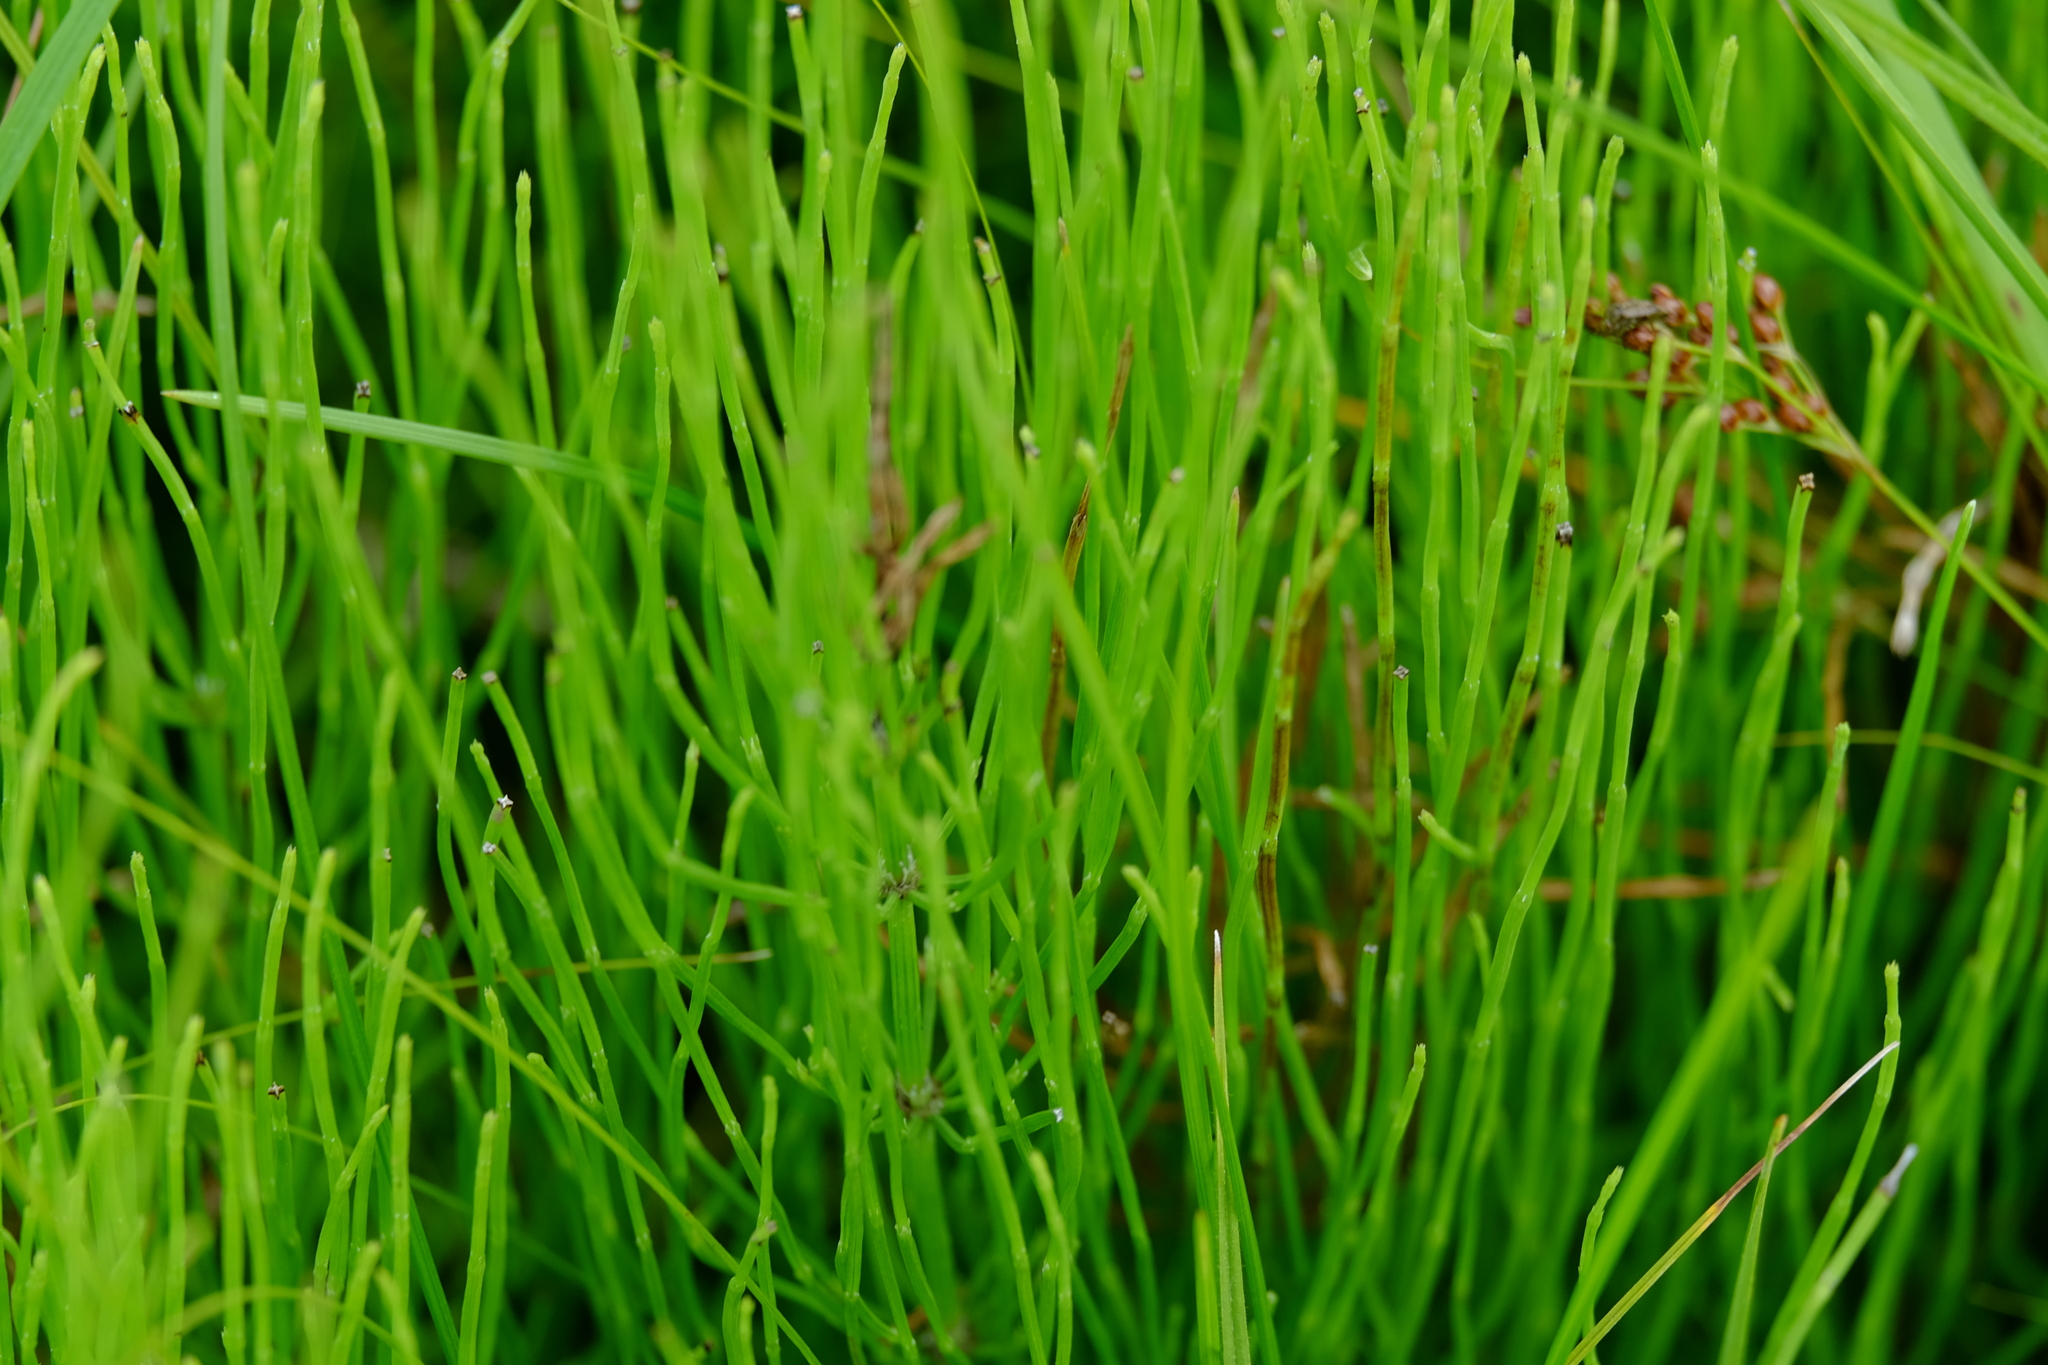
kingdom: Plantae
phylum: Tracheophyta
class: Polypodiopsida
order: Equisetales
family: Equisetaceae
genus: Equisetum
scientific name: Equisetum arvense
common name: Field horsetail
